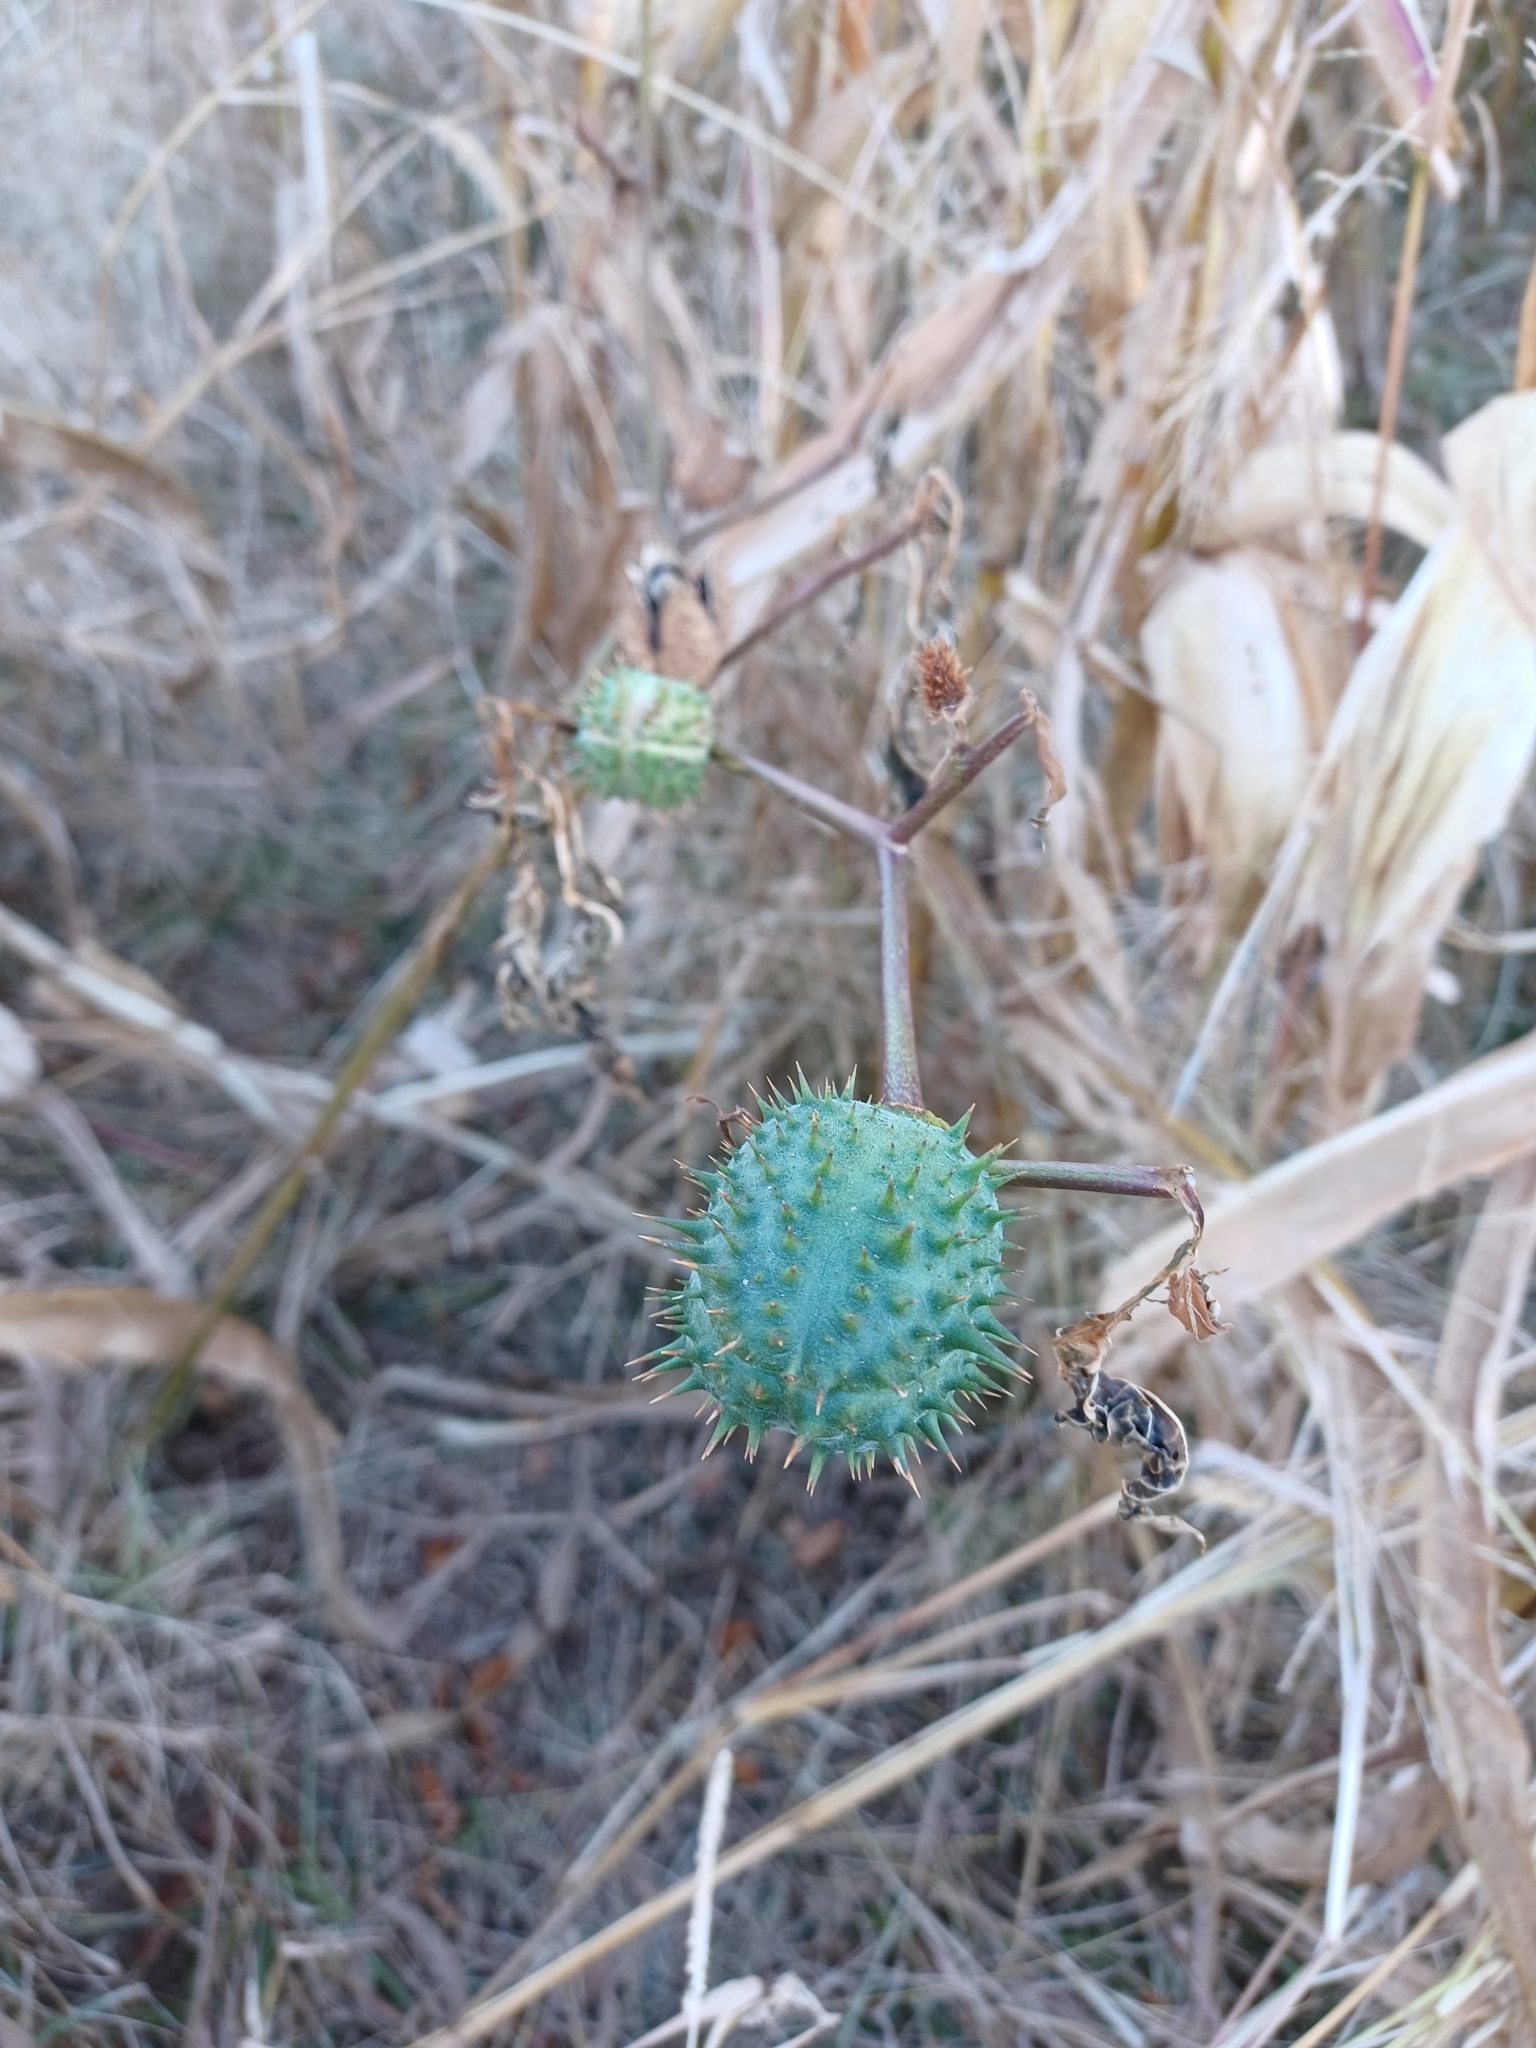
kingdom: Plantae
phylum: Tracheophyta
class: Magnoliopsida
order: Solanales
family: Solanaceae
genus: Datura
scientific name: Datura stramonium
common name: Thorn-apple
